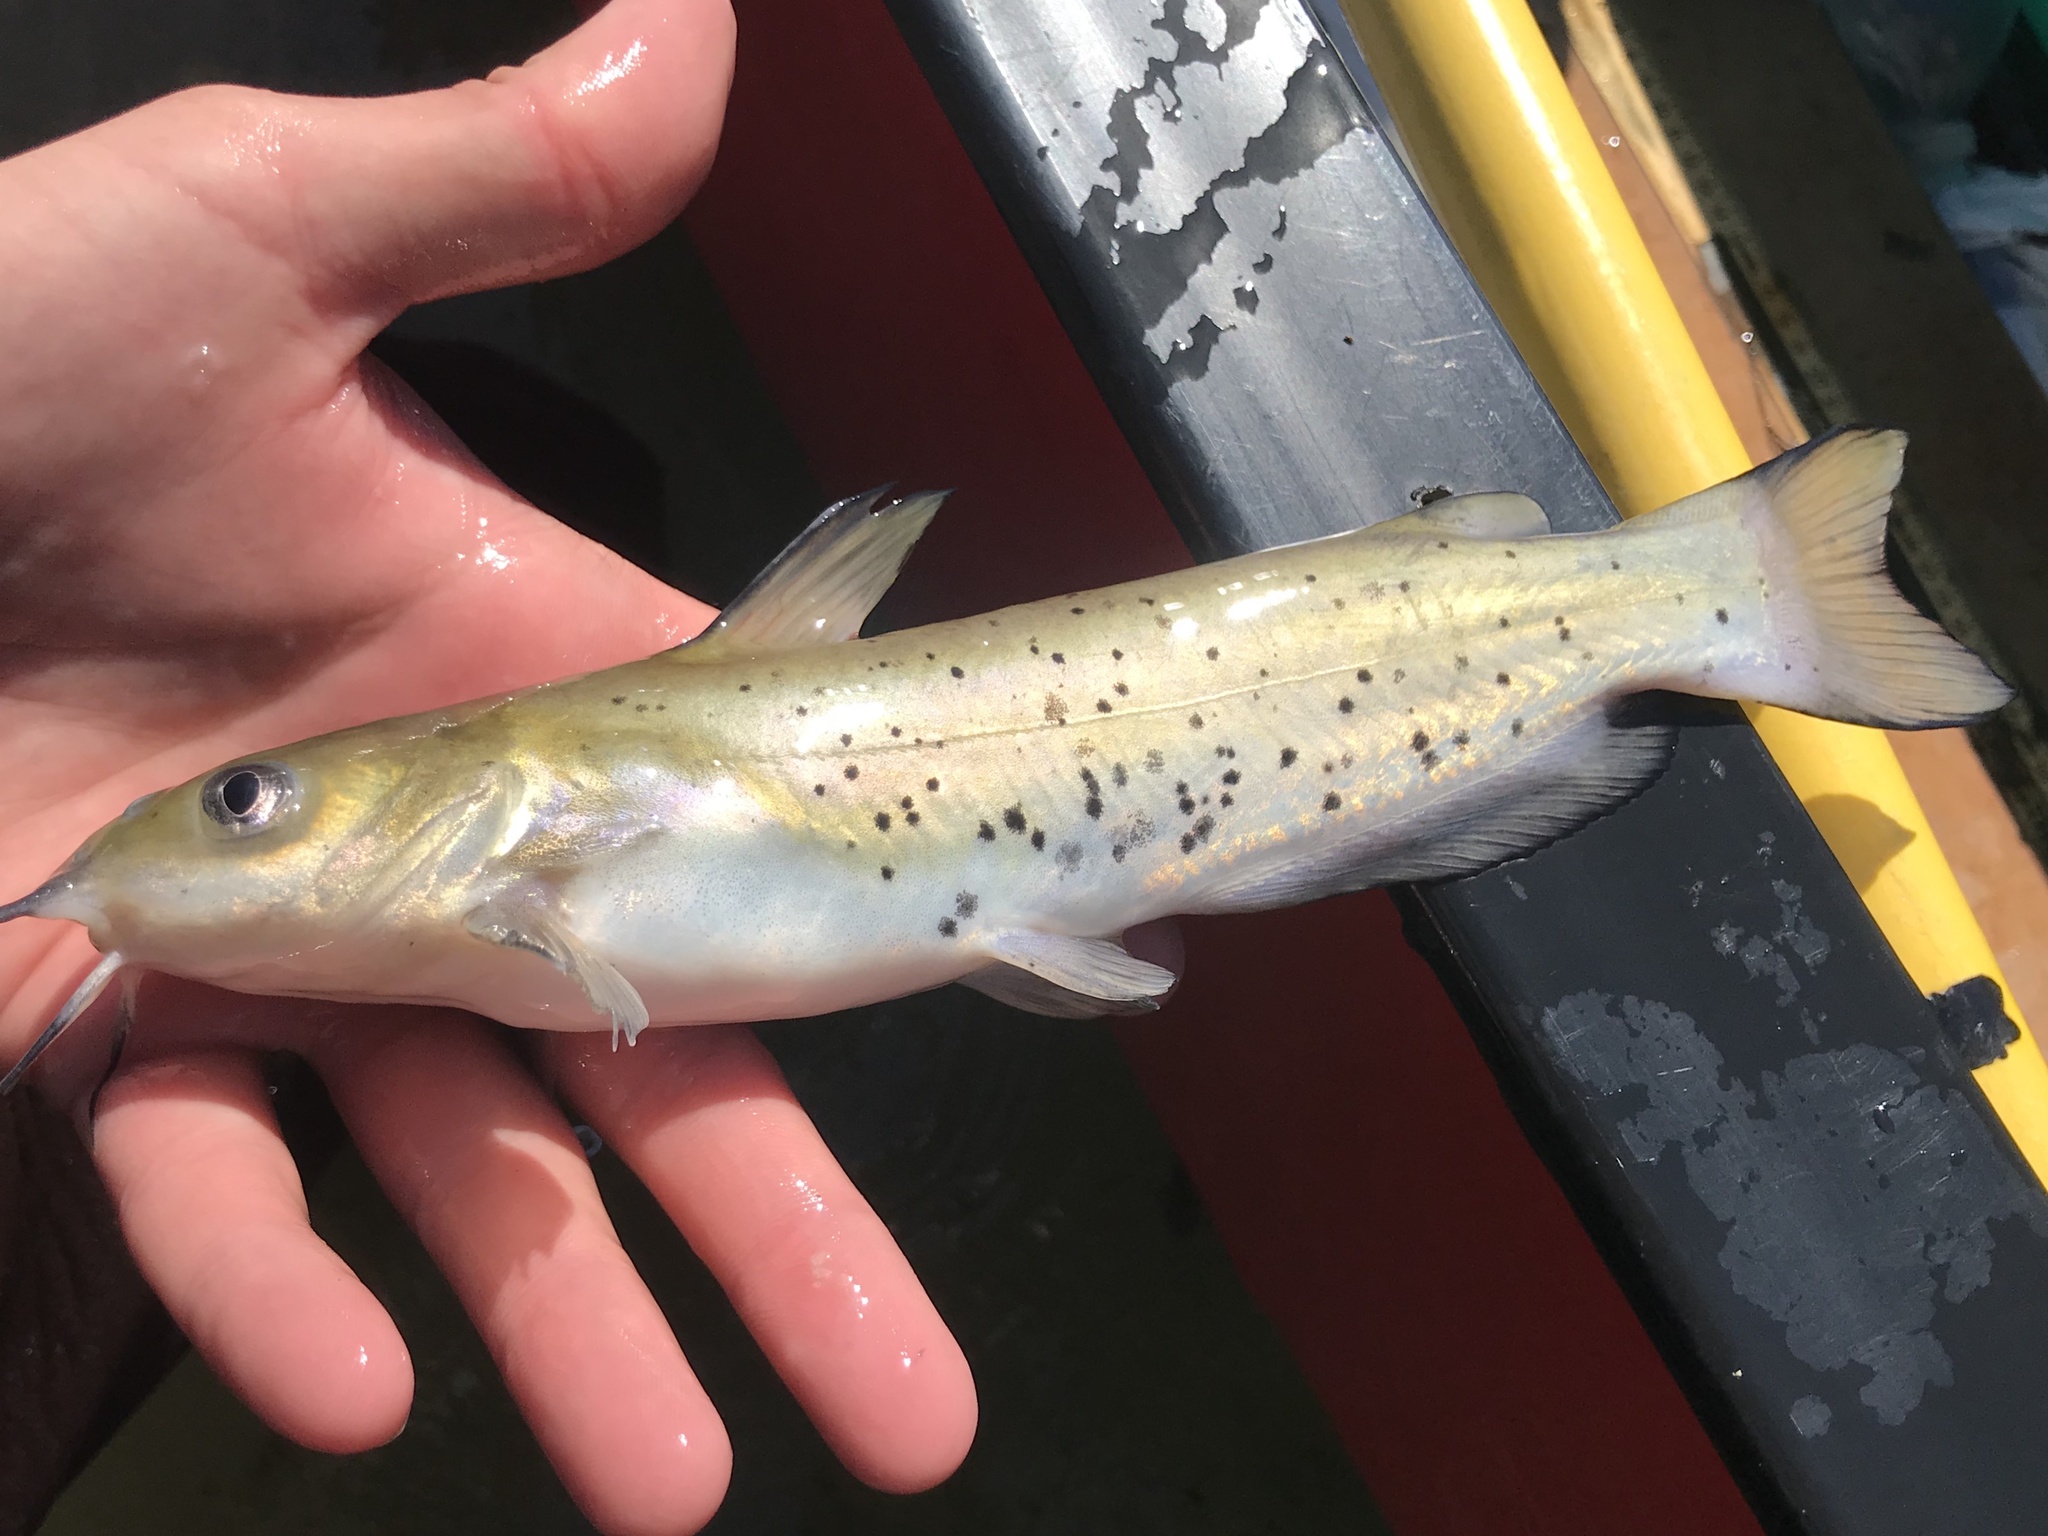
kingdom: Animalia
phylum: Chordata
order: Siluriformes
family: Ictaluridae
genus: Ictalurus
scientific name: Ictalurus punctatus
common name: Channel catfish
